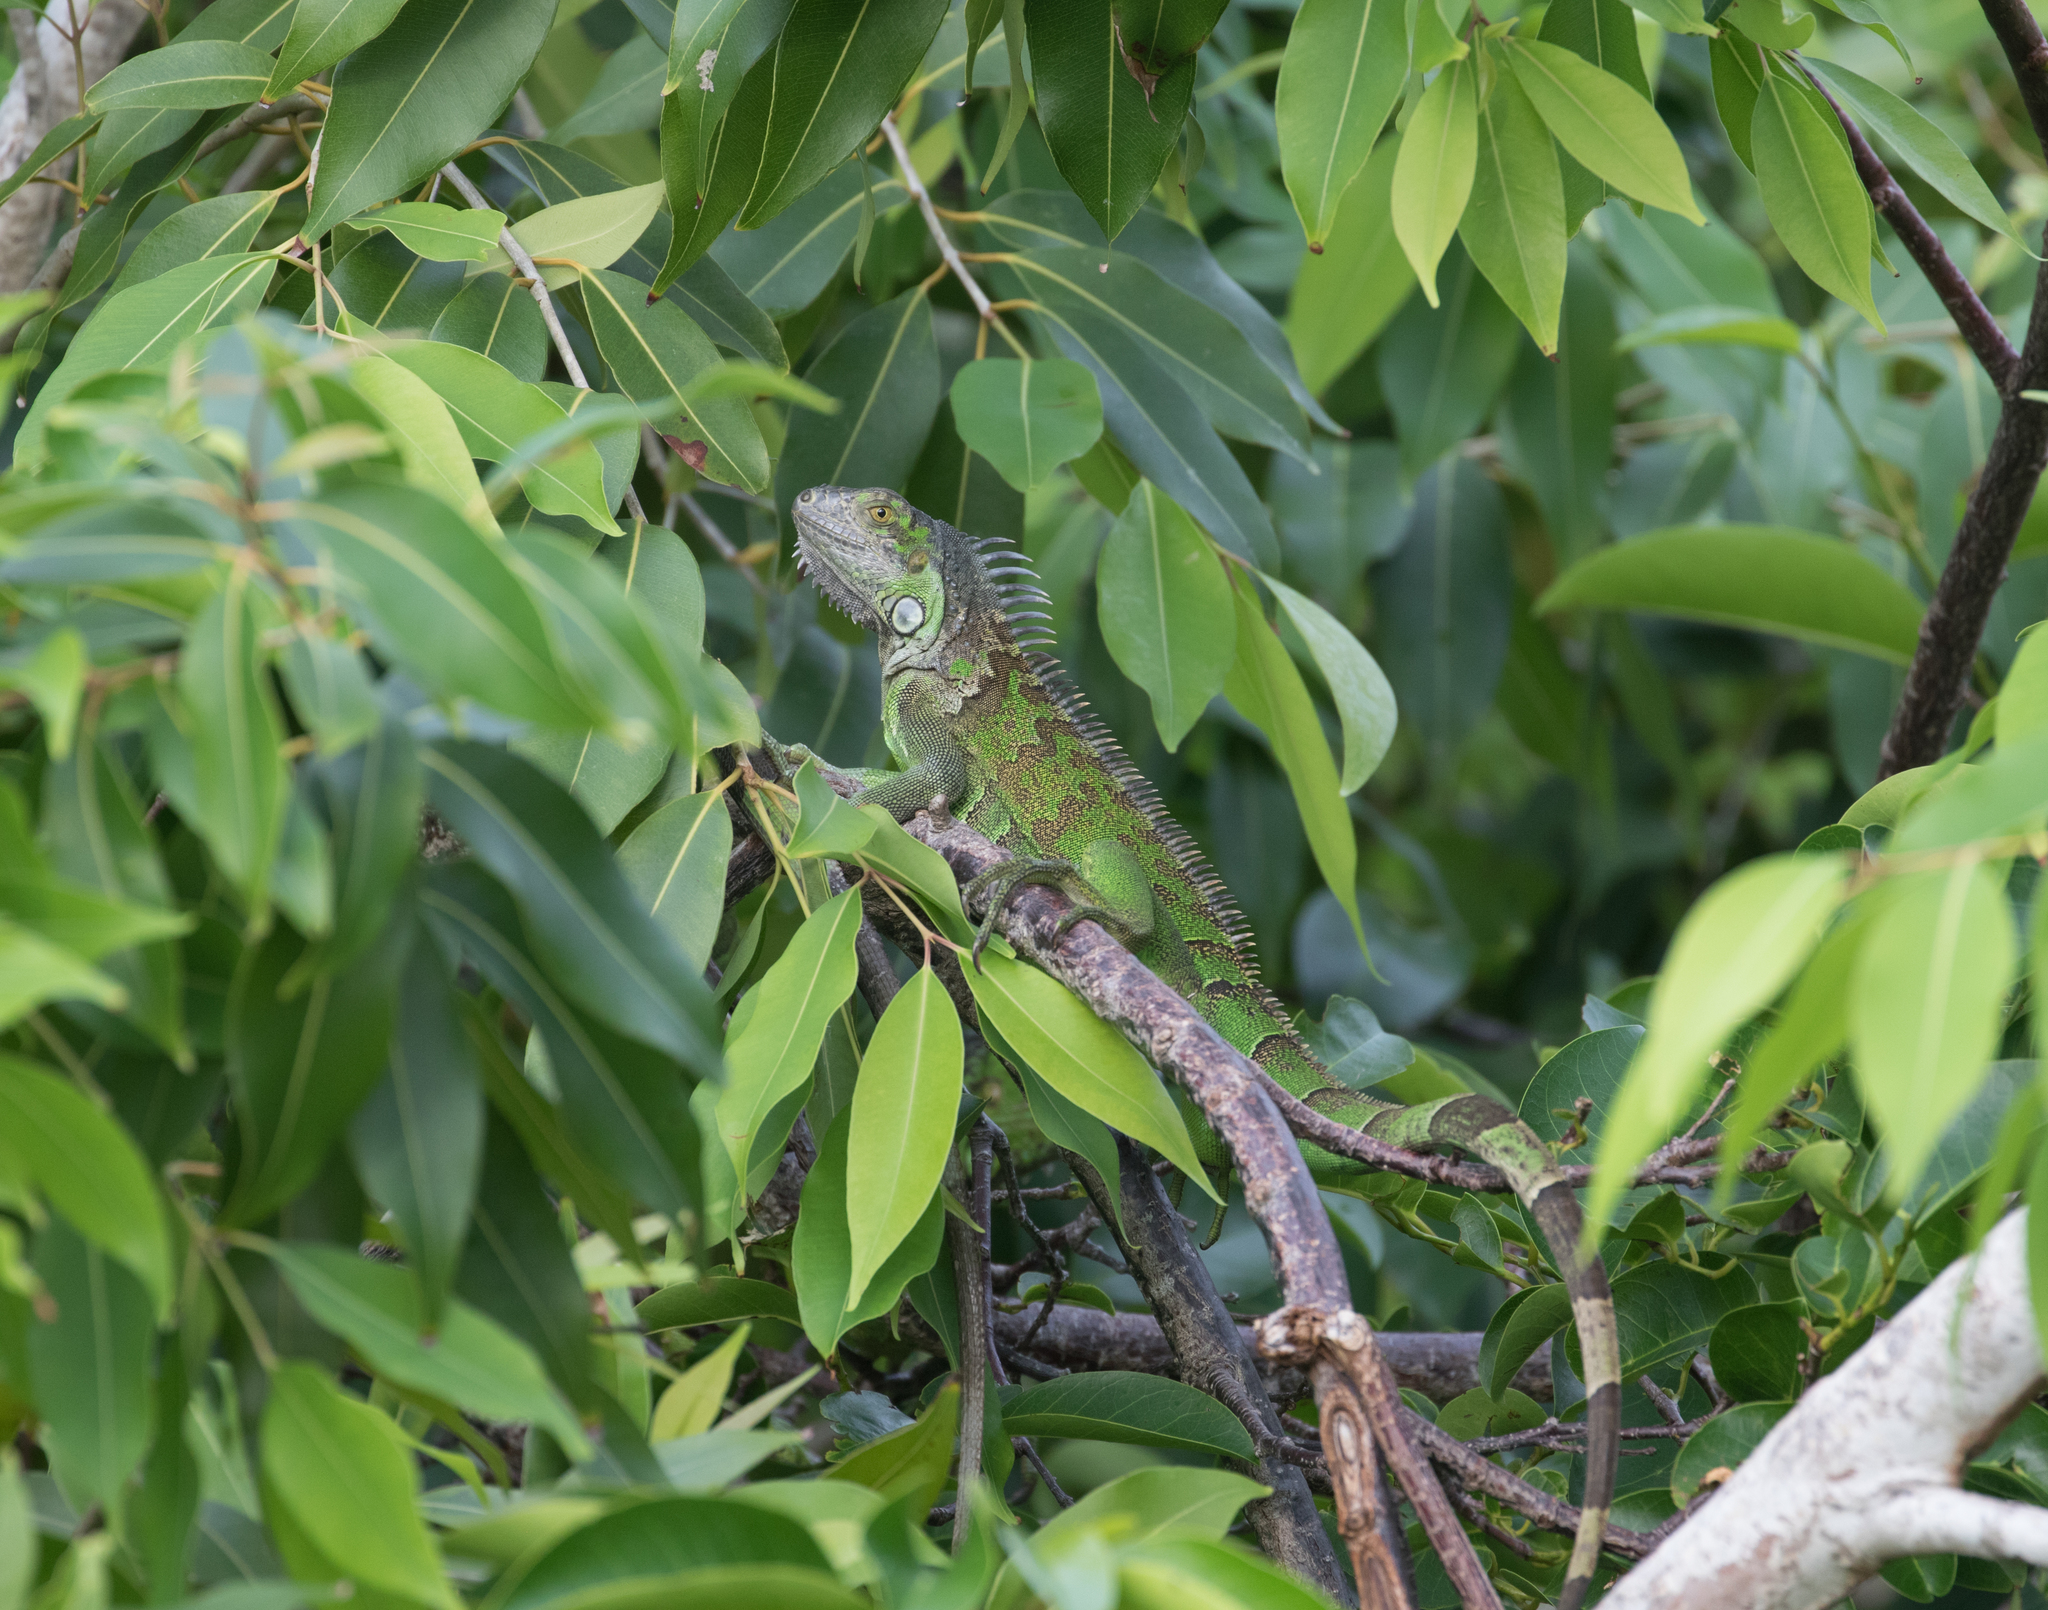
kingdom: Animalia
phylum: Chordata
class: Squamata
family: Iguanidae
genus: Iguana
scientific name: Iguana iguana
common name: Green iguana
